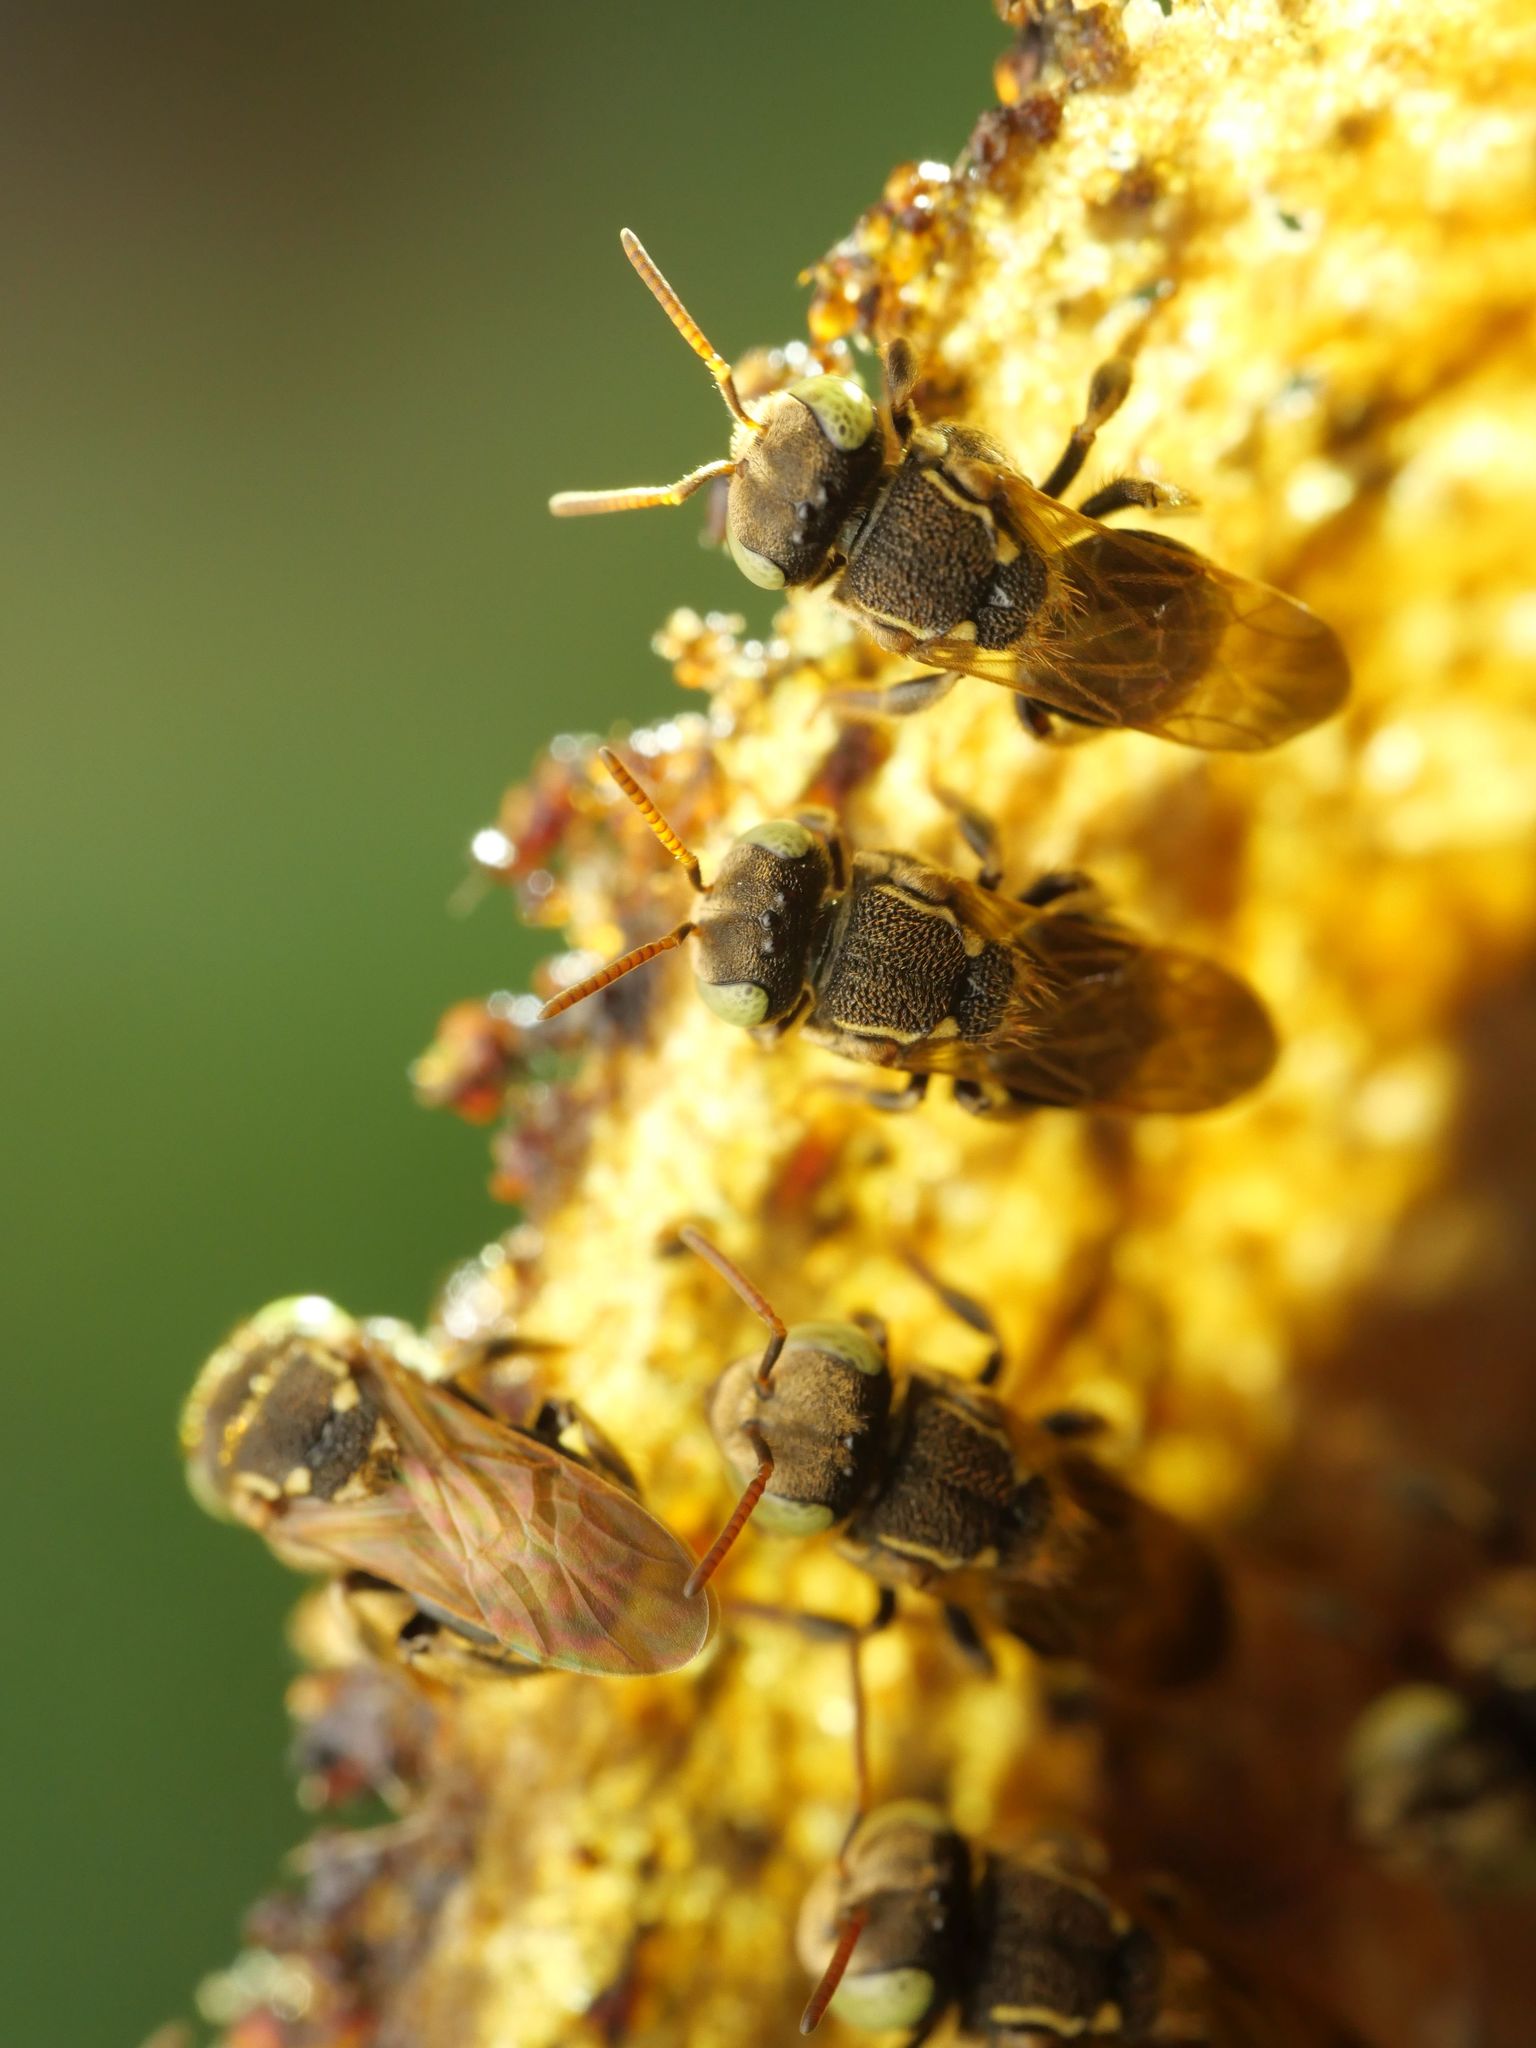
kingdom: Animalia
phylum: Arthropoda
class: Insecta
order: Hymenoptera
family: Apidae
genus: Nannotrigona
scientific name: Nannotrigona tristella
